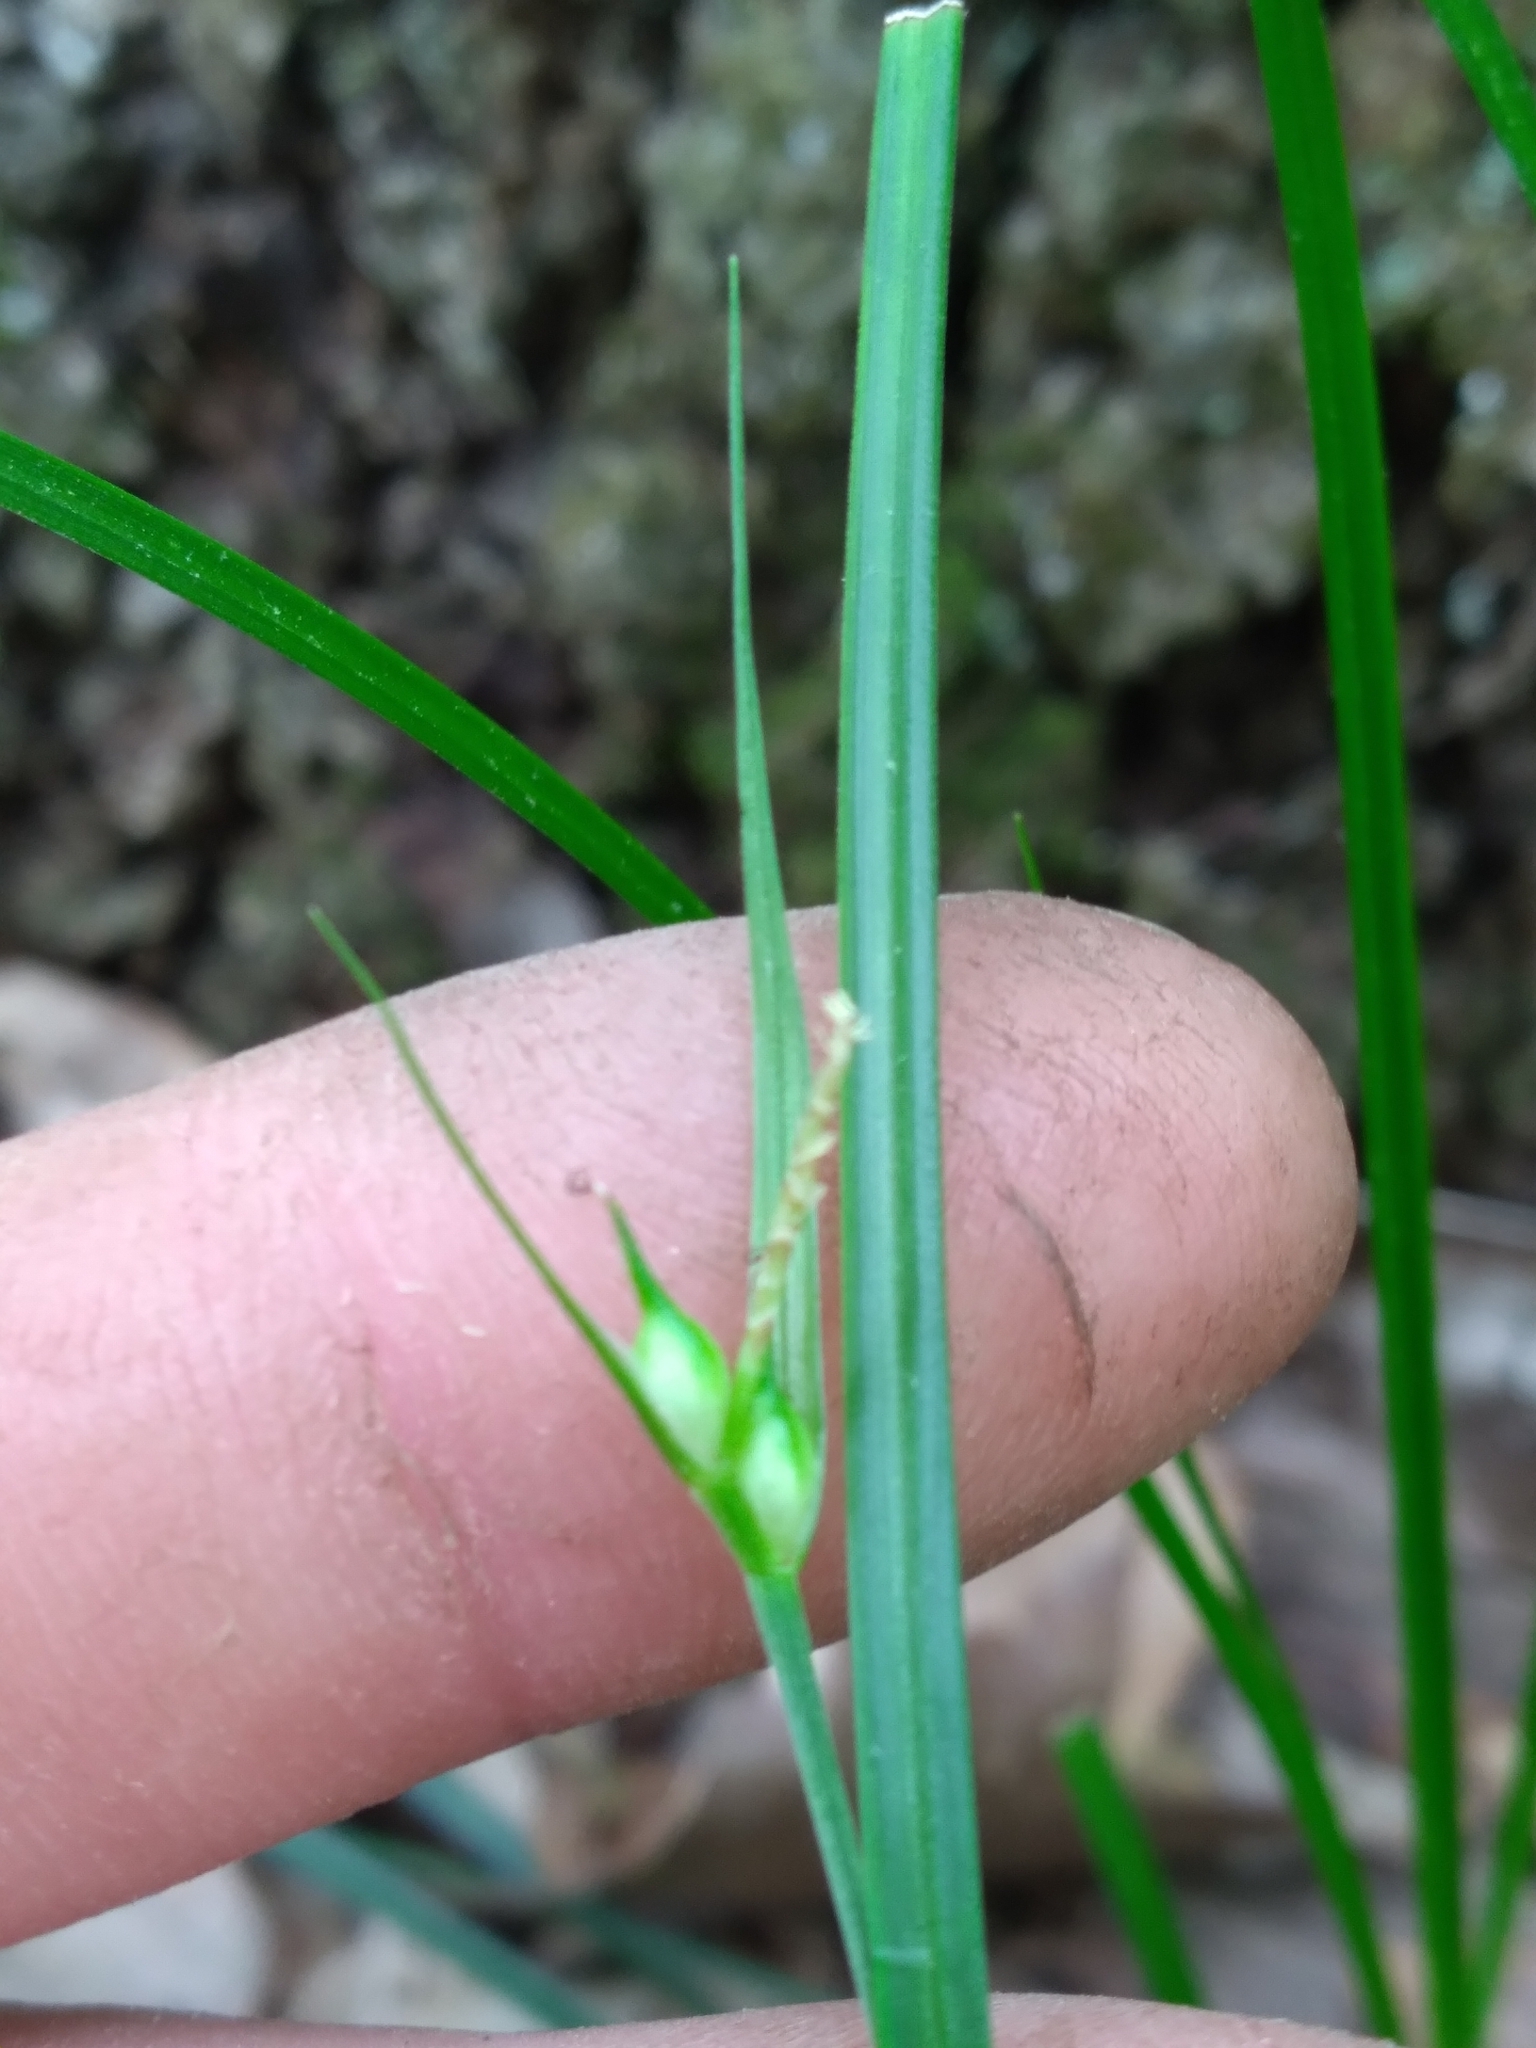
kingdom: Plantae
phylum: Tracheophyta
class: Liliopsida
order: Poales
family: Cyperaceae
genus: Carex
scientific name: Carex jamesii
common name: Grass sedge
